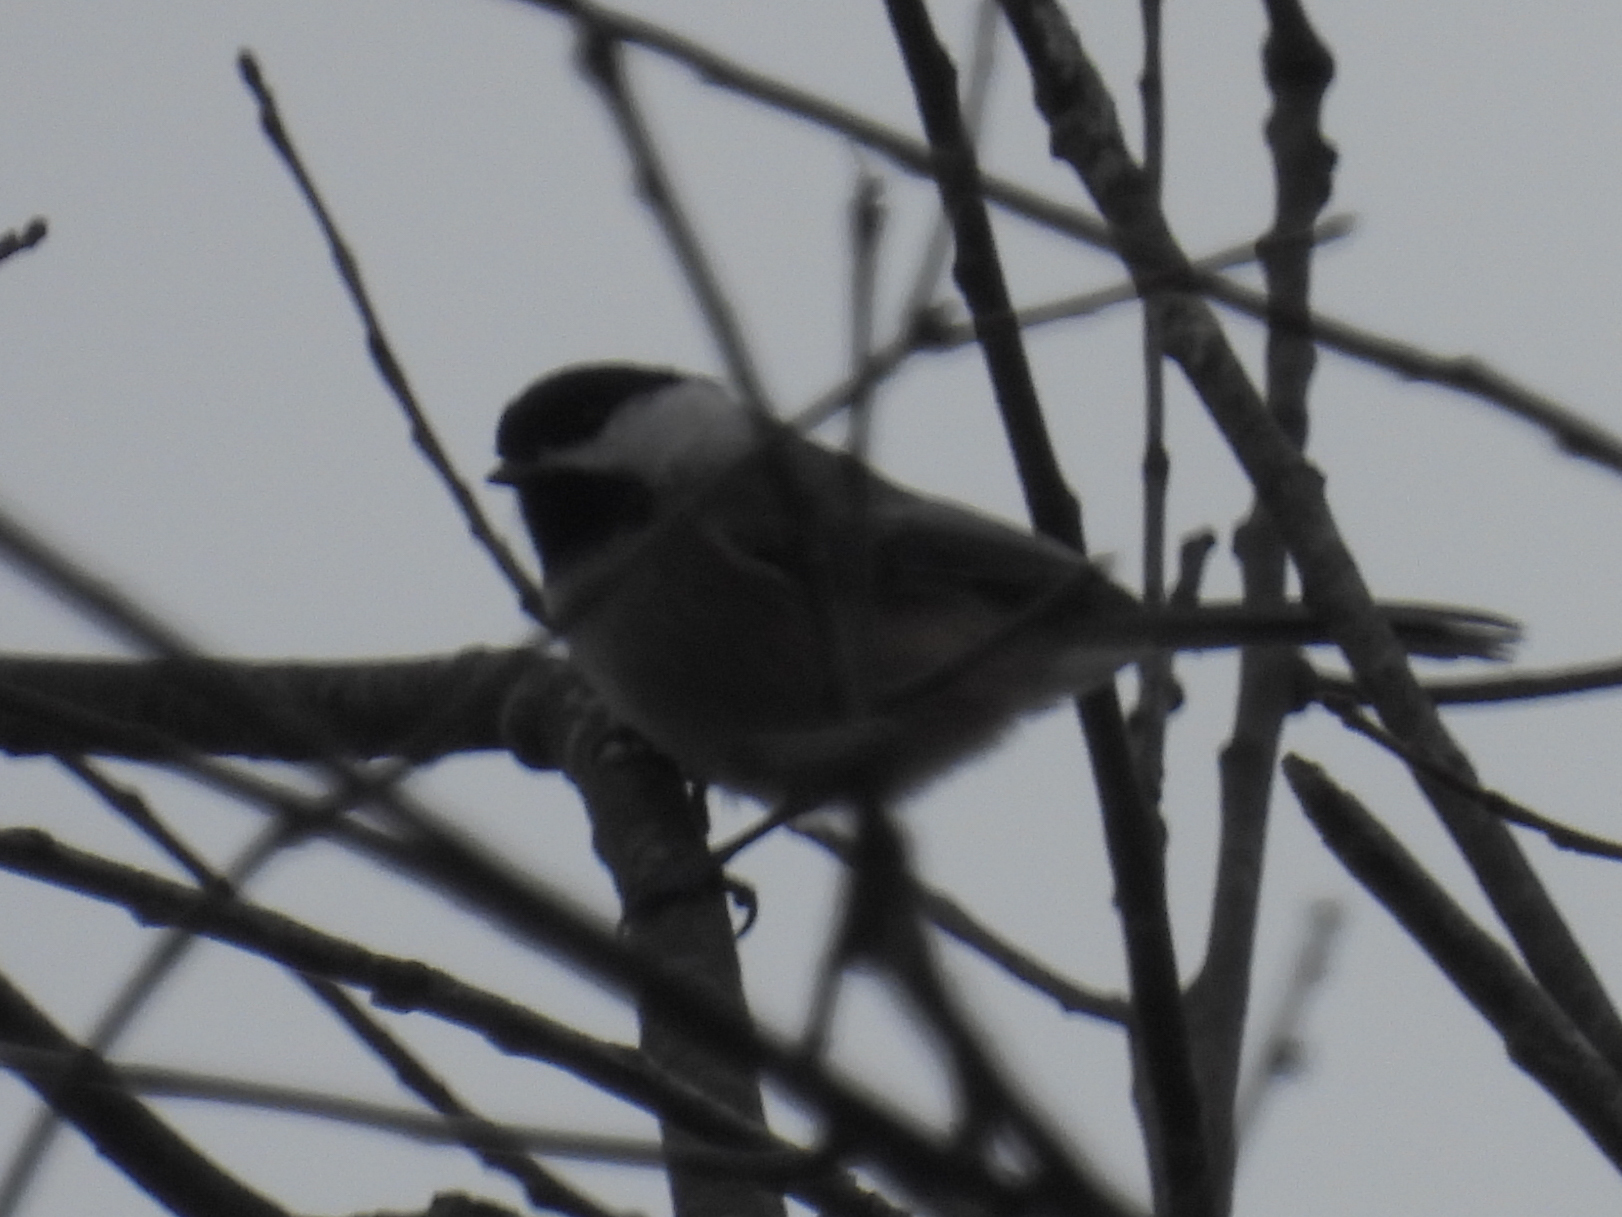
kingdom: Animalia
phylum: Chordata
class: Aves
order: Passeriformes
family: Paridae
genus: Poecile
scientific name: Poecile atricapillus
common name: Black-capped chickadee
